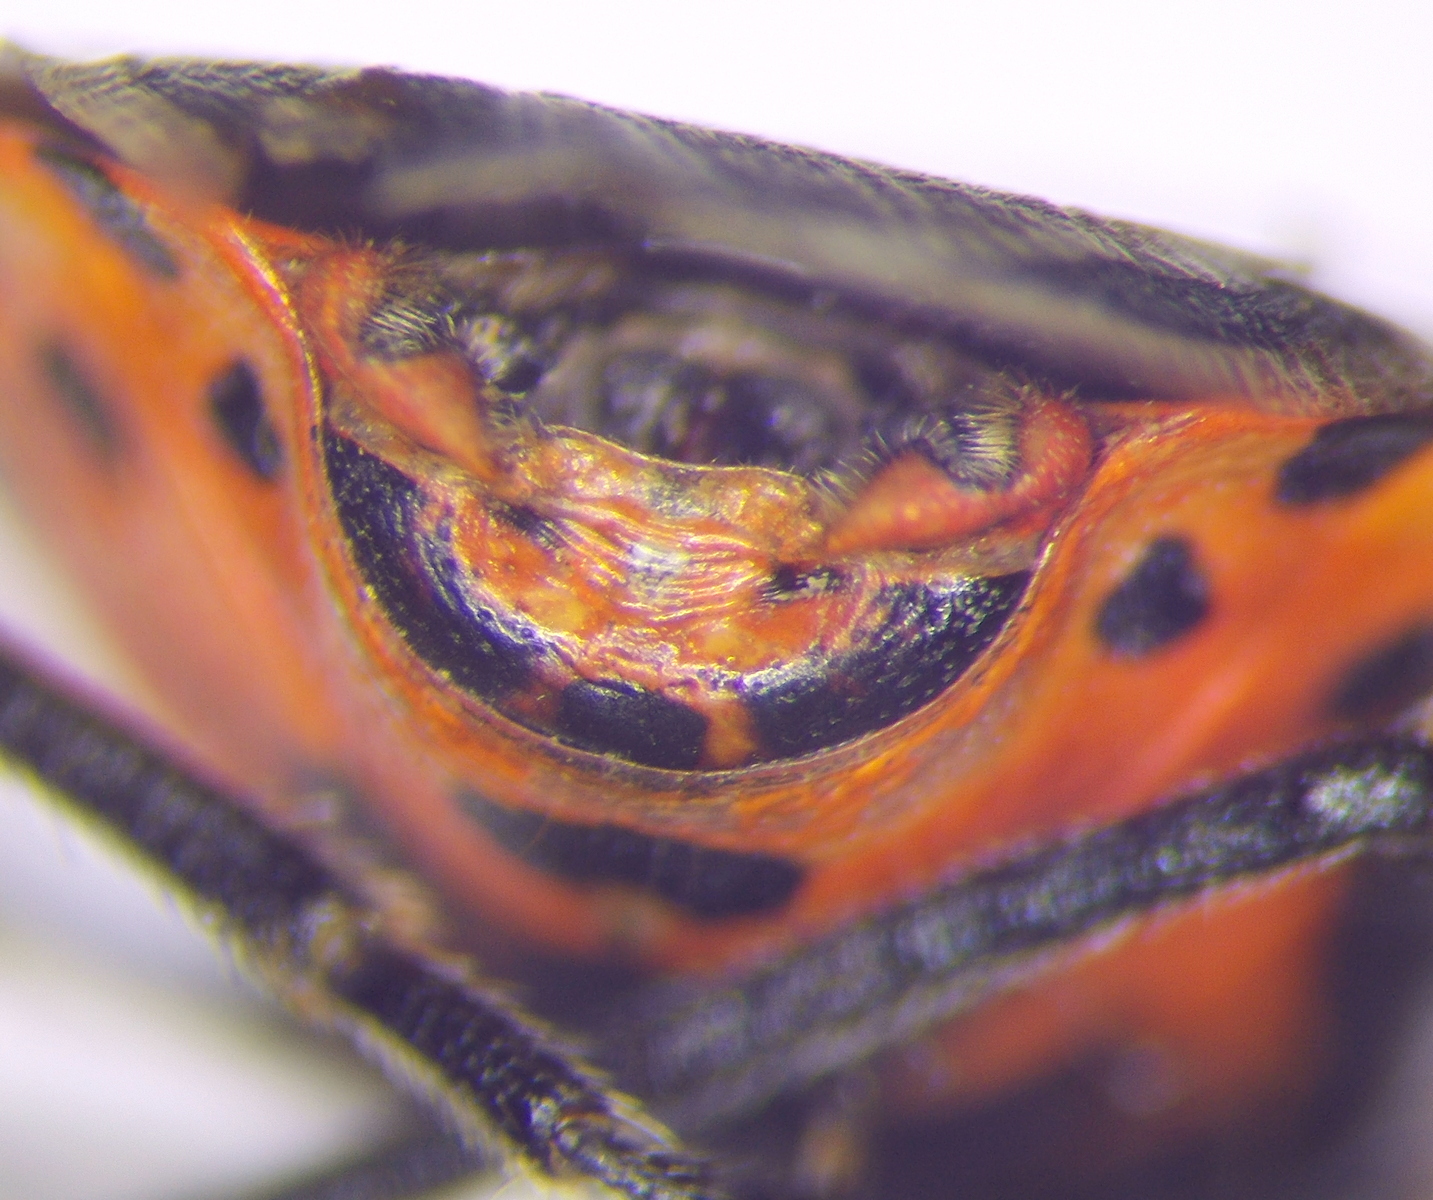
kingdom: Animalia
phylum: Arthropoda
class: Insecta
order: Hemiptera
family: Pentatomidae
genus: Eurydema
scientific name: Eurydema ventralis
